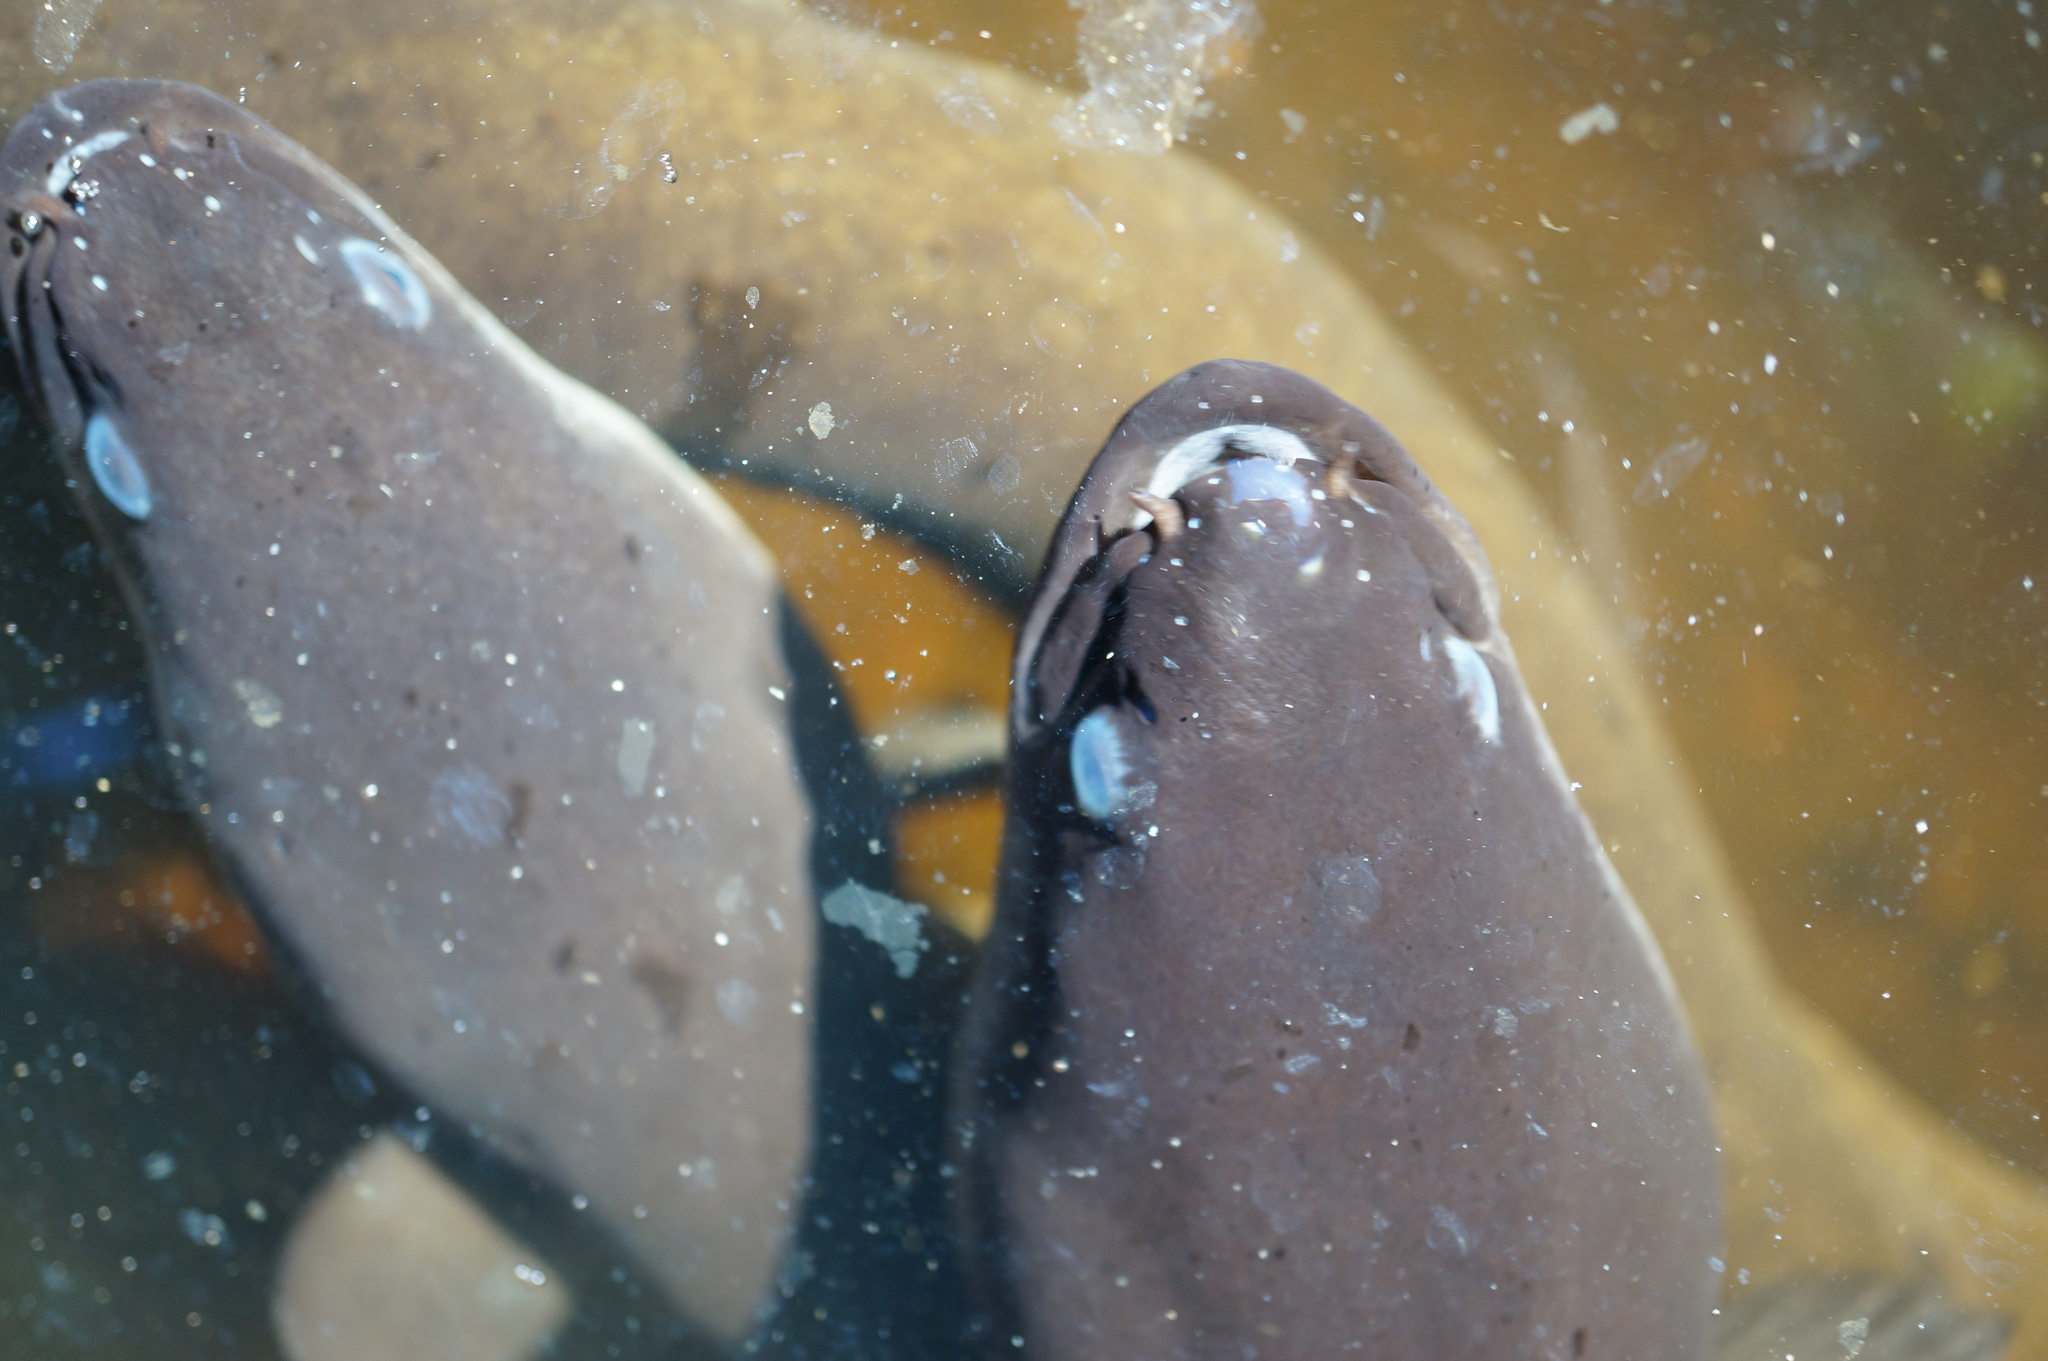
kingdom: Animalia
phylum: Chordata
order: Anguilliformes
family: Anguillidae
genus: Anguilla
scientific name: Anguilla australis
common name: Shortfin eel
